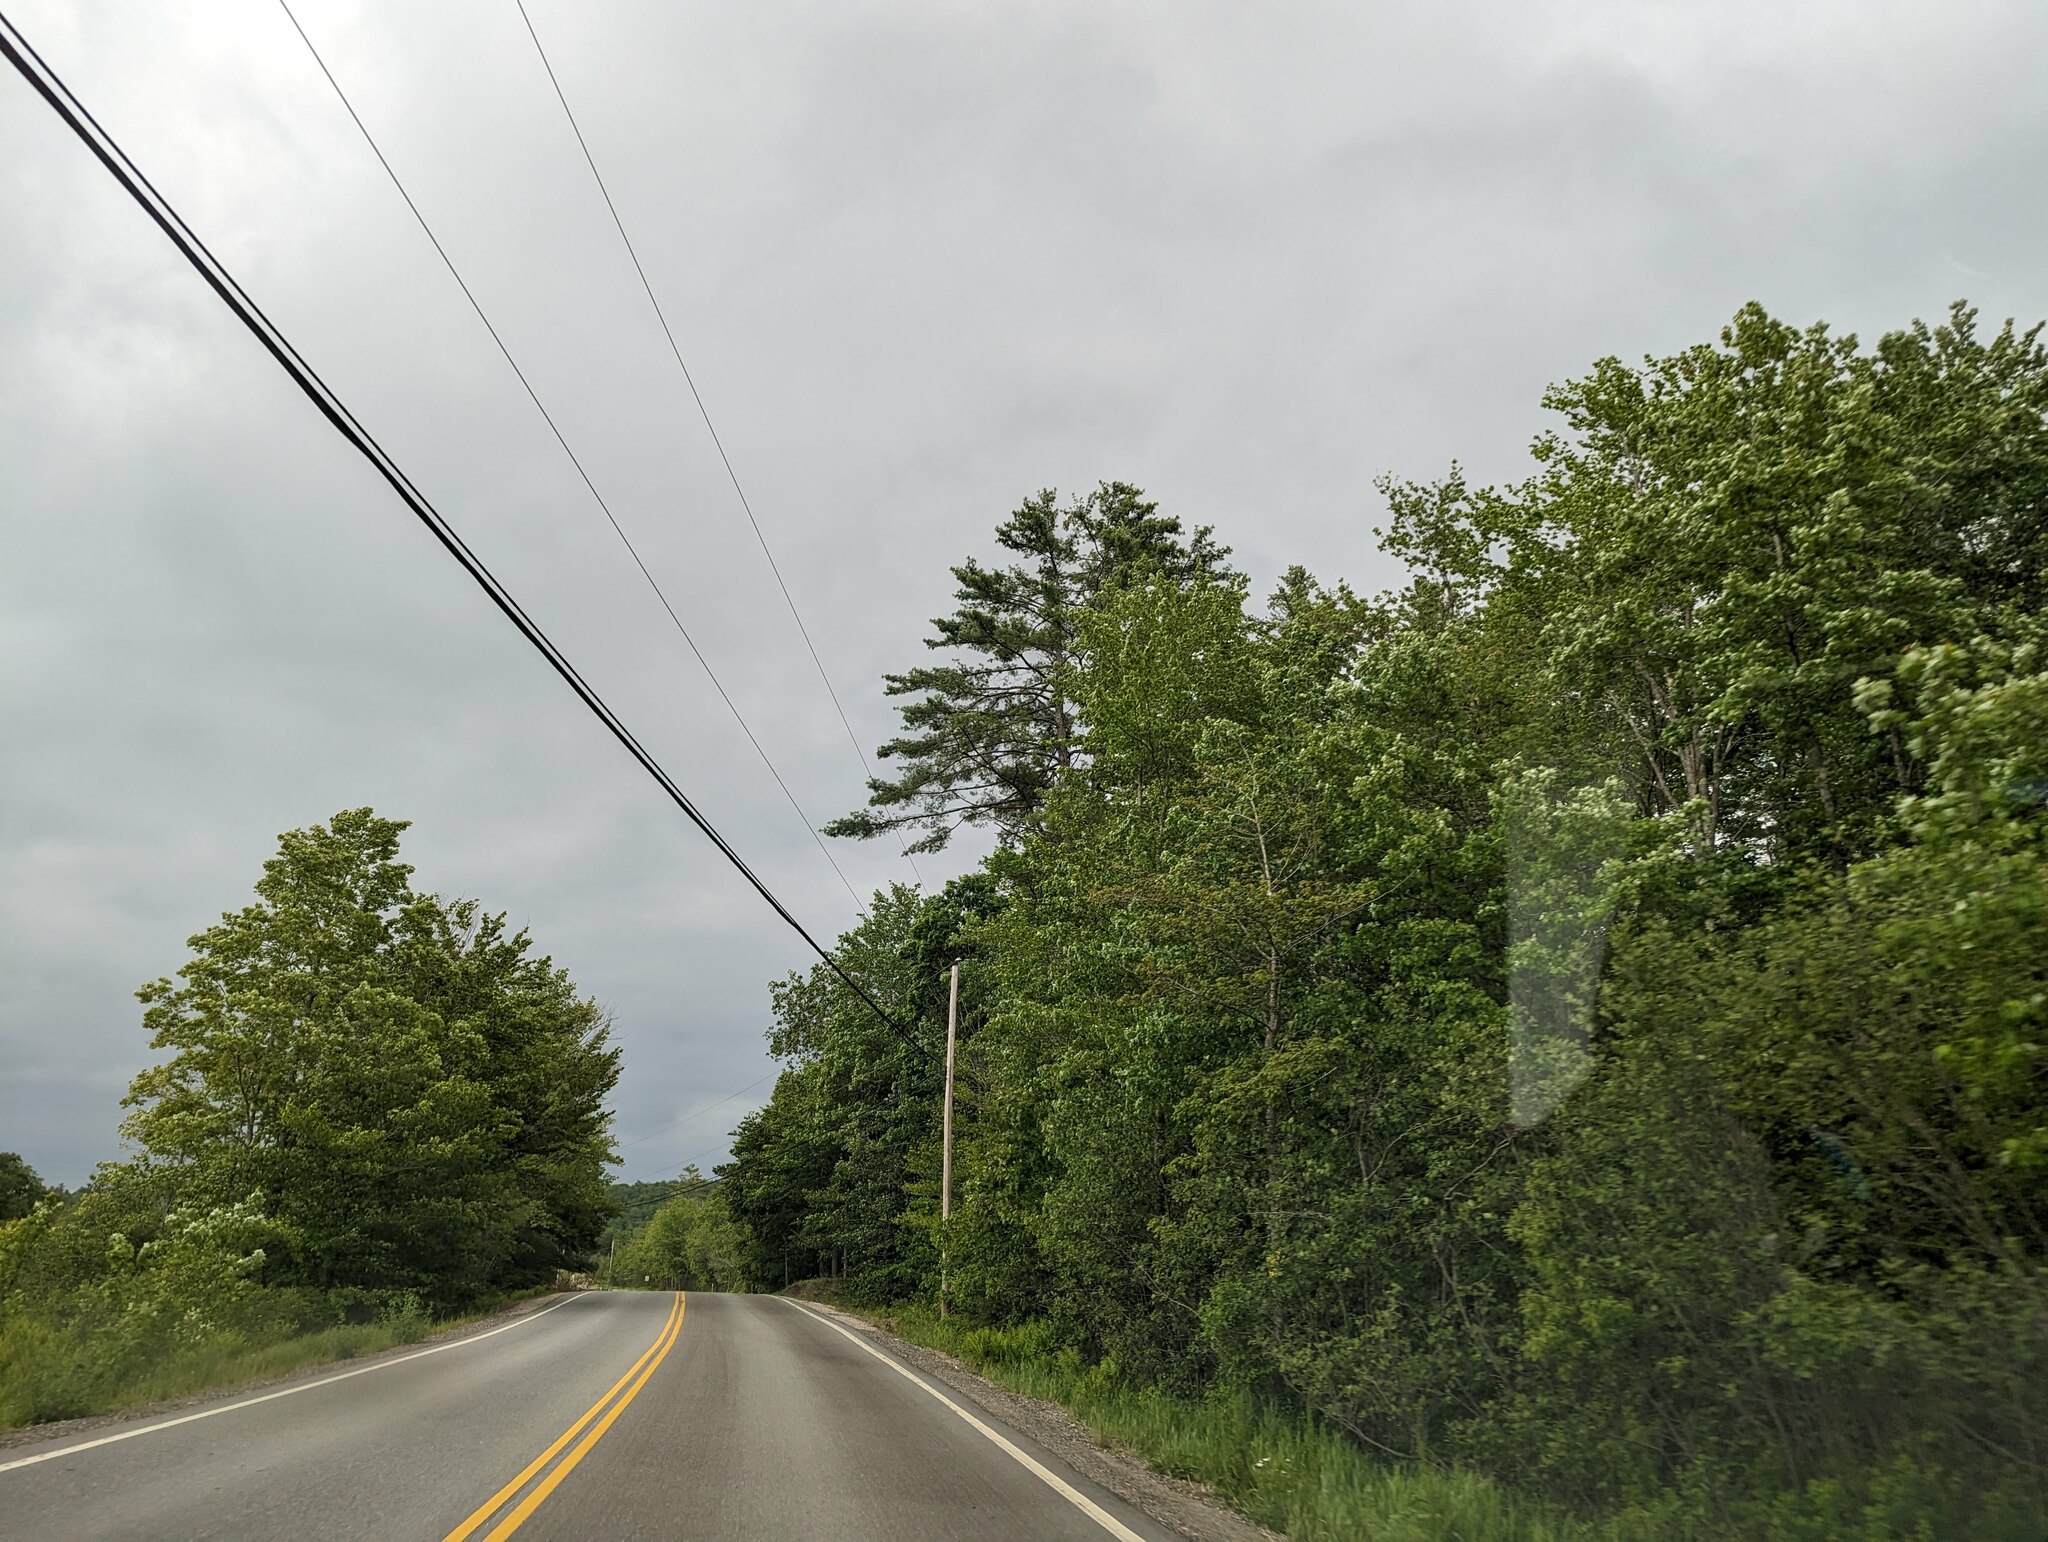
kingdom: Plantae
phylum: Tracheophyta
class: Pinopsida
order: Pinales
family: Pinaceae
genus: Pinus
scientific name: Pinus strobus
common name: Weymouth pine
